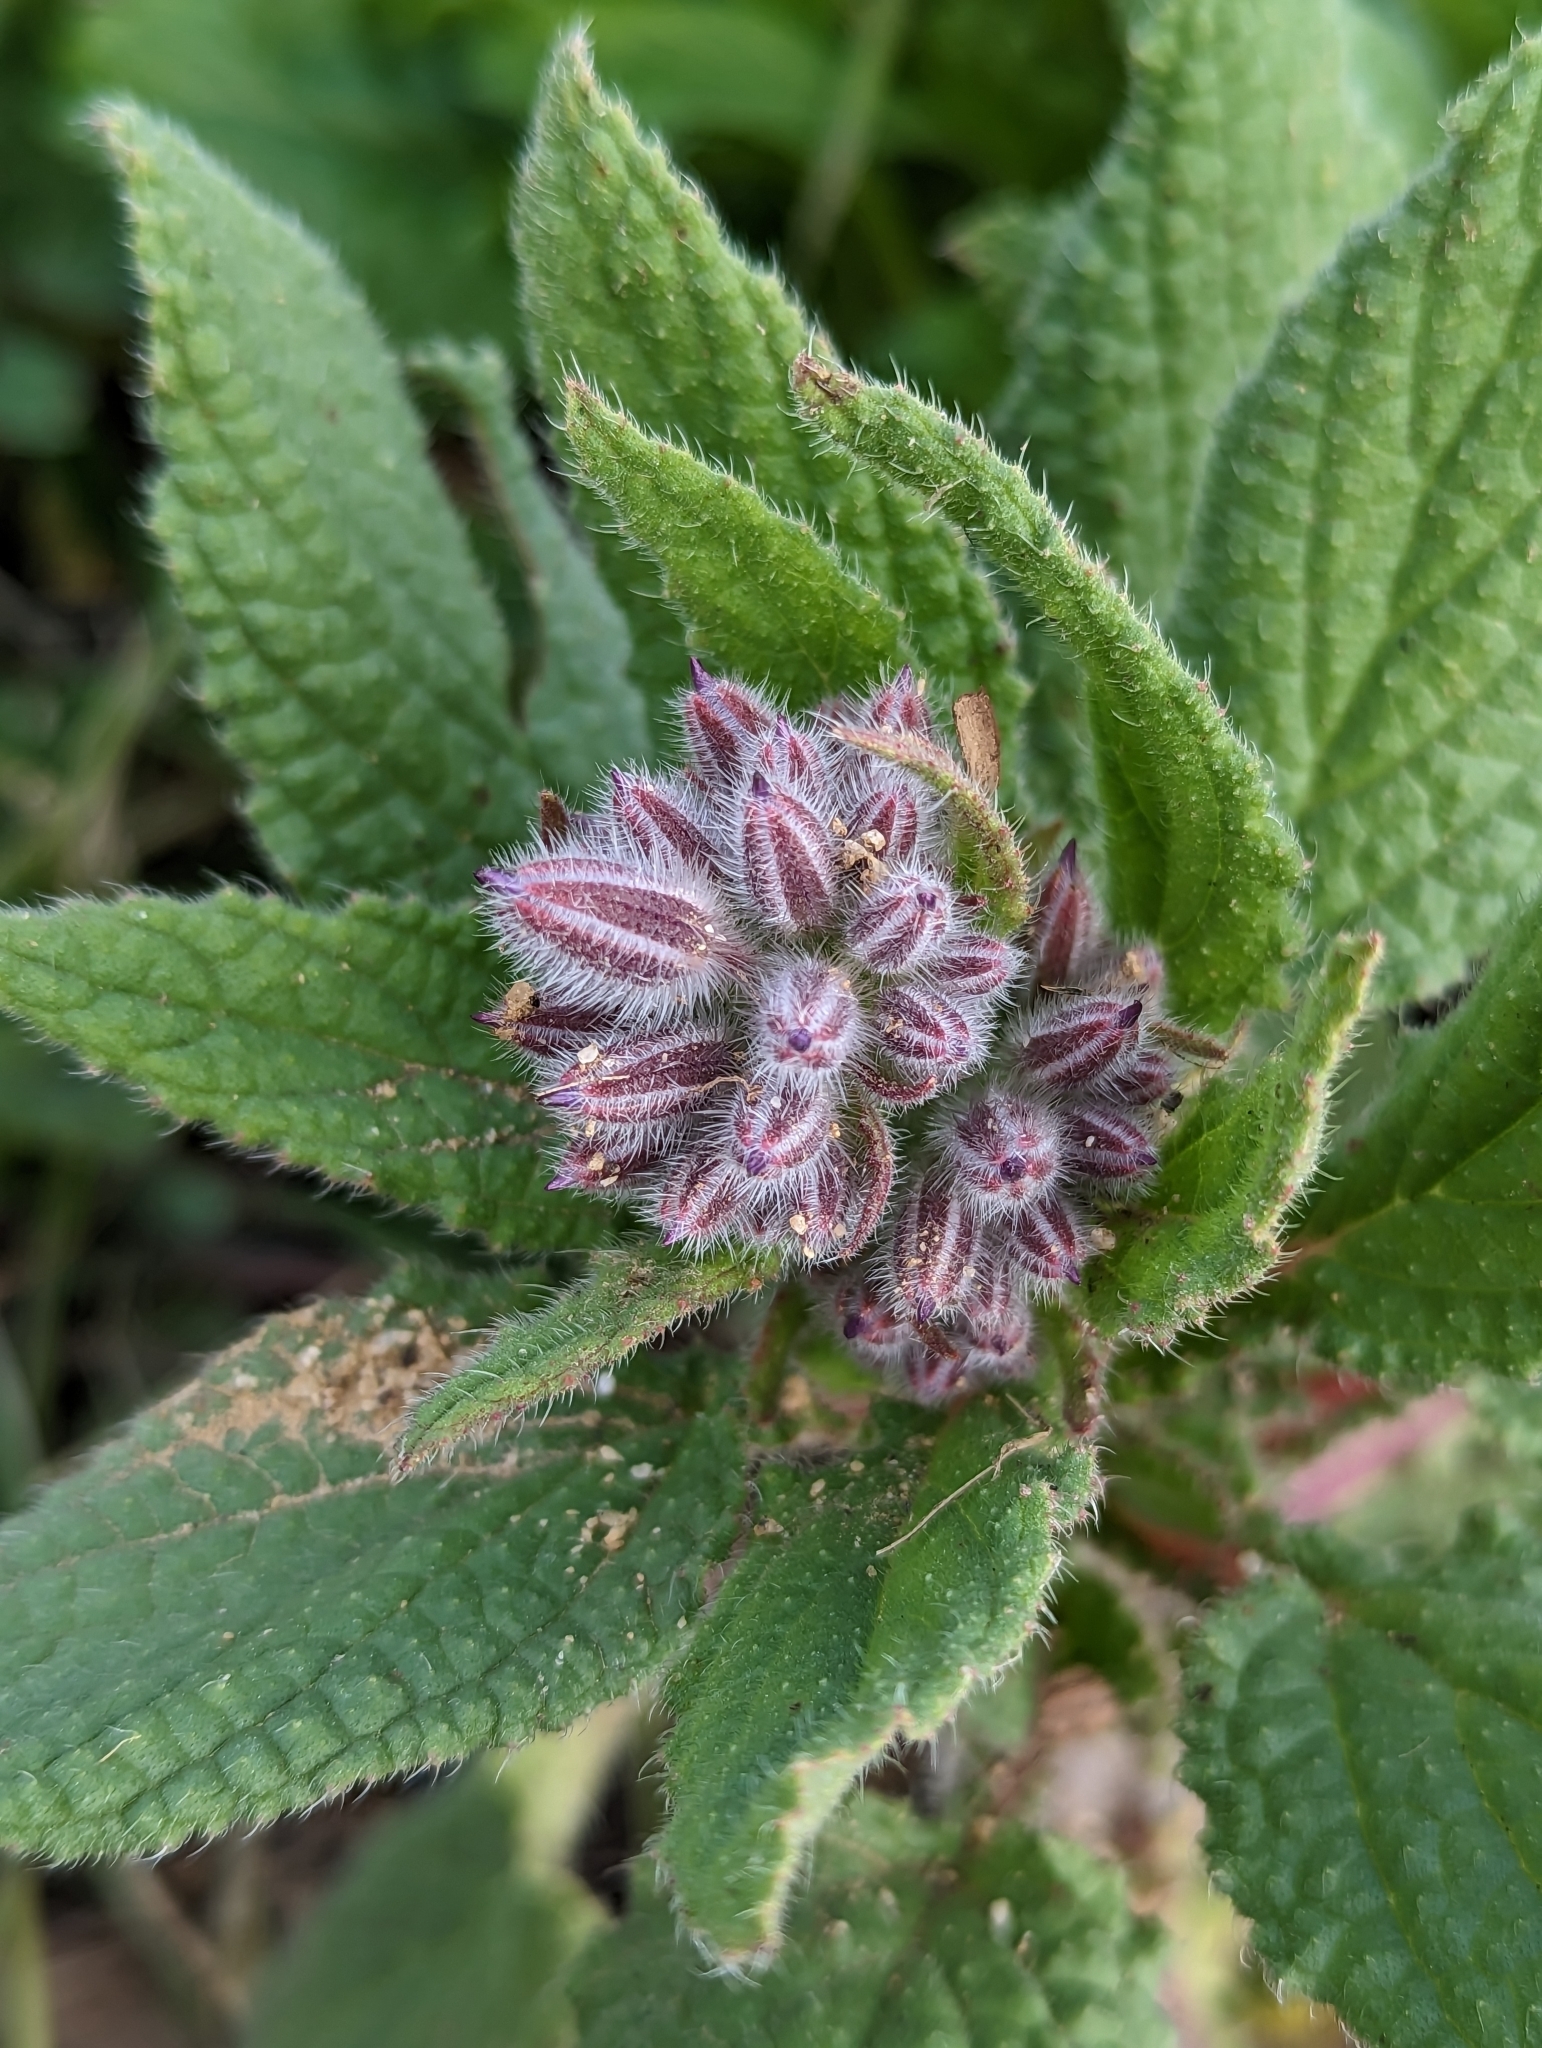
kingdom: Plantae
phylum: Tracheophyta
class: Magnoliopsida
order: Boraginales
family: Boraginaceae
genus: Borago
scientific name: Borago officinalis
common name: Borage
